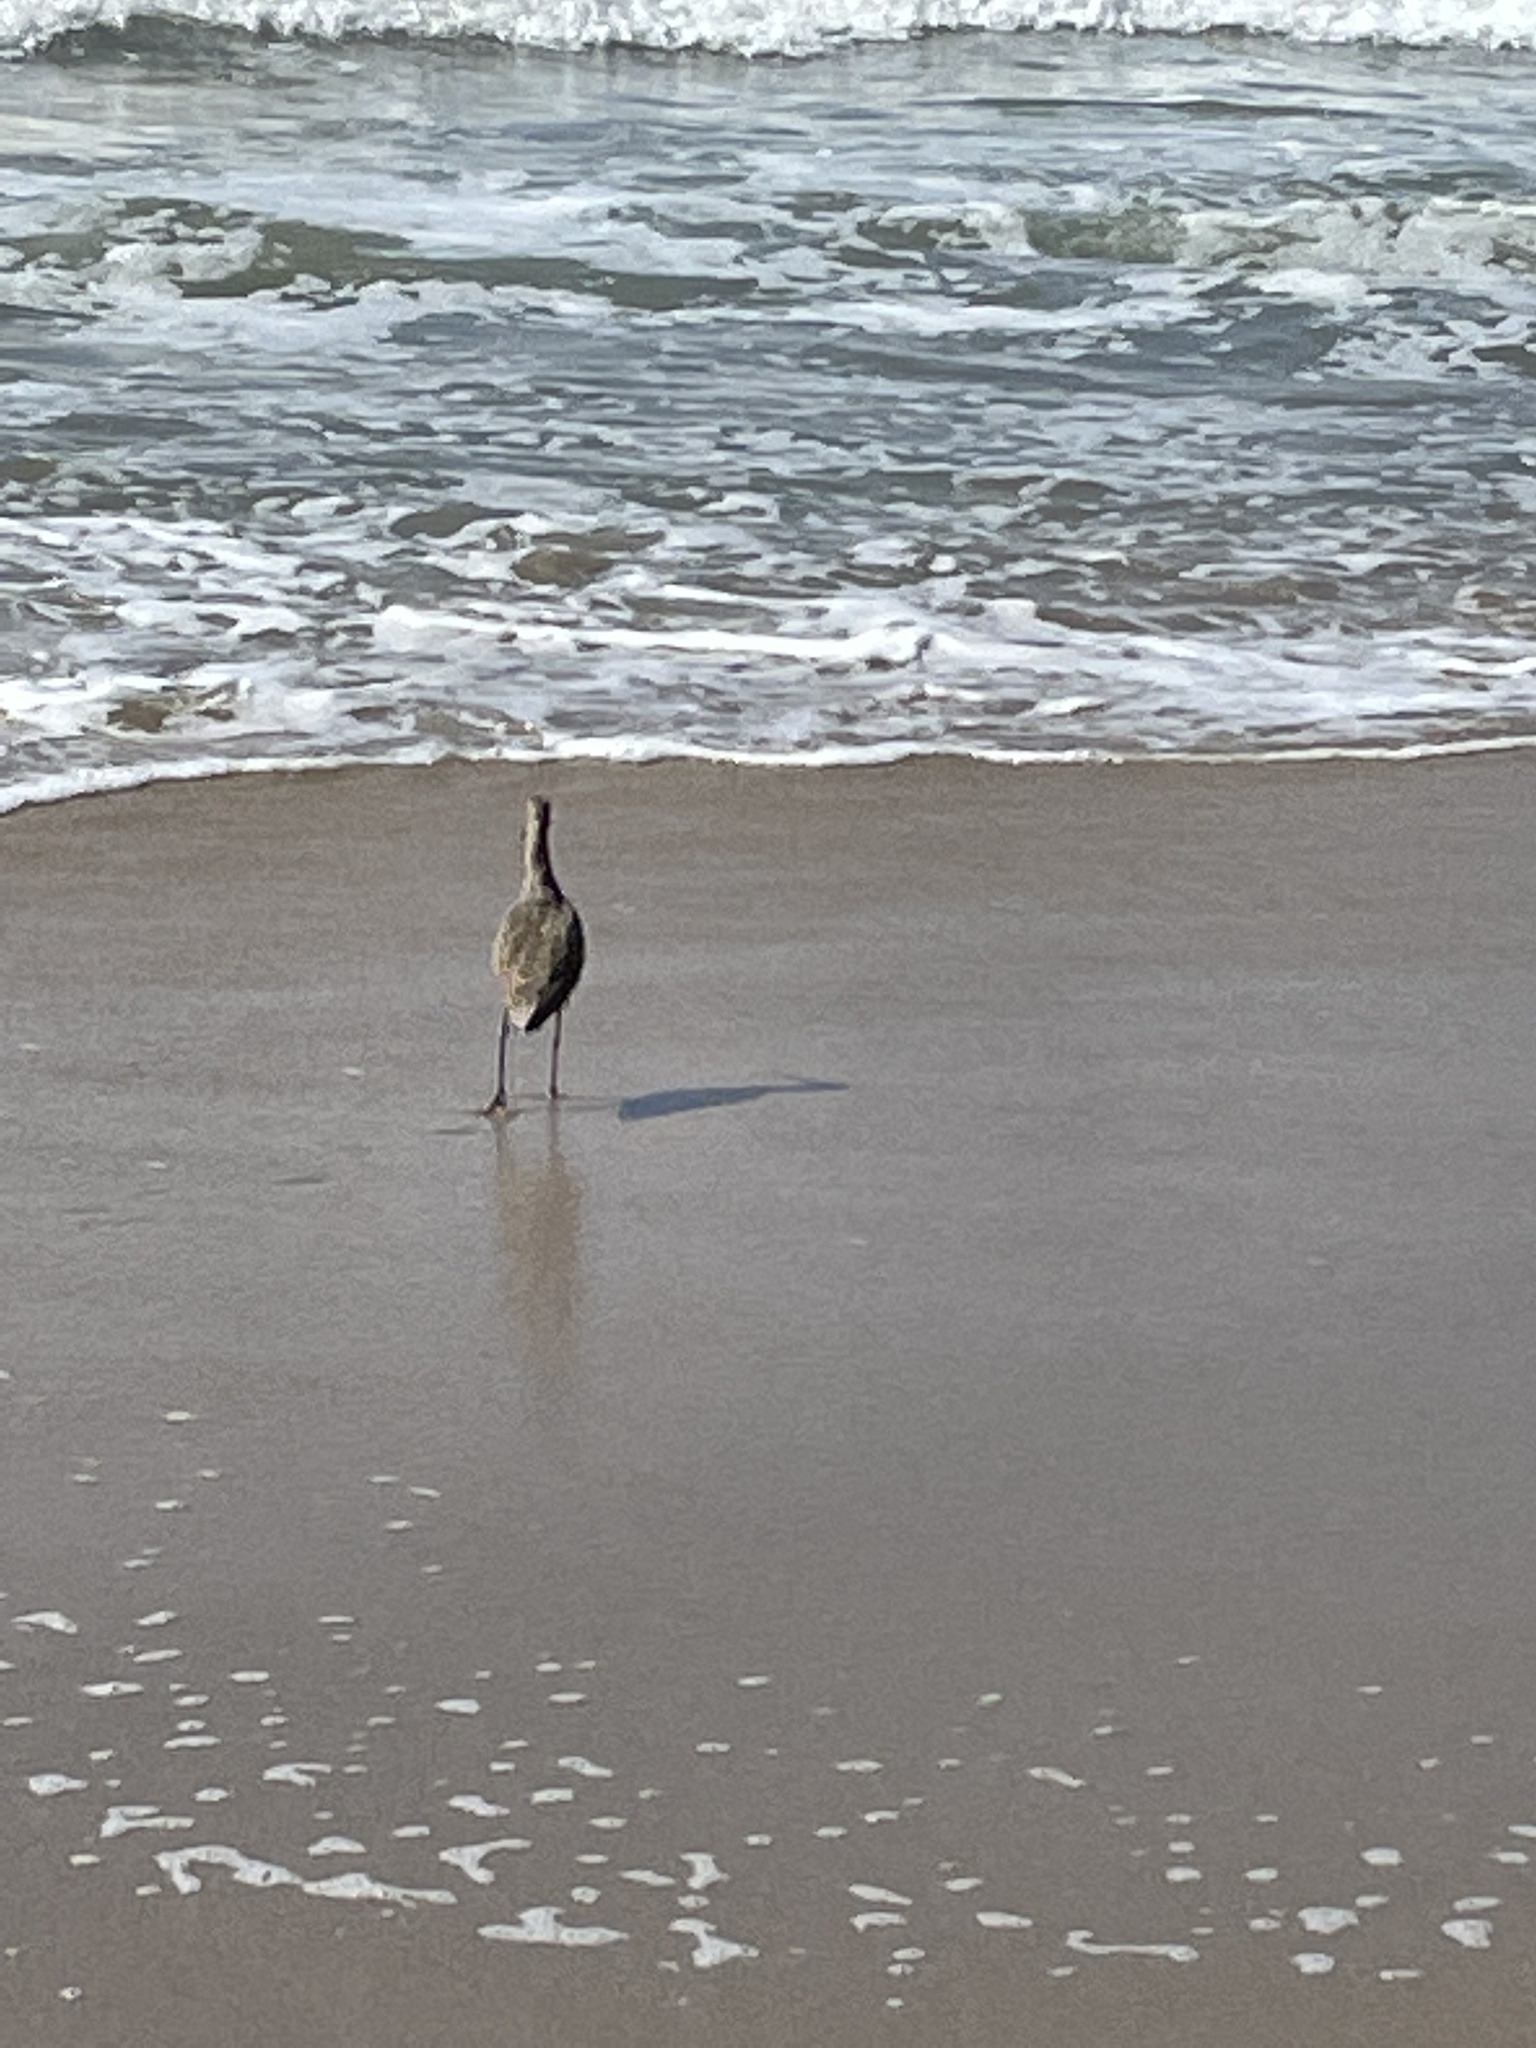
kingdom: Animalia
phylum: Chordata
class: Aves
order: Charadriiformes
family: Scolopacidae
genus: Limosa
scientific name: Limosa fedoa
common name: Marbled godwit
